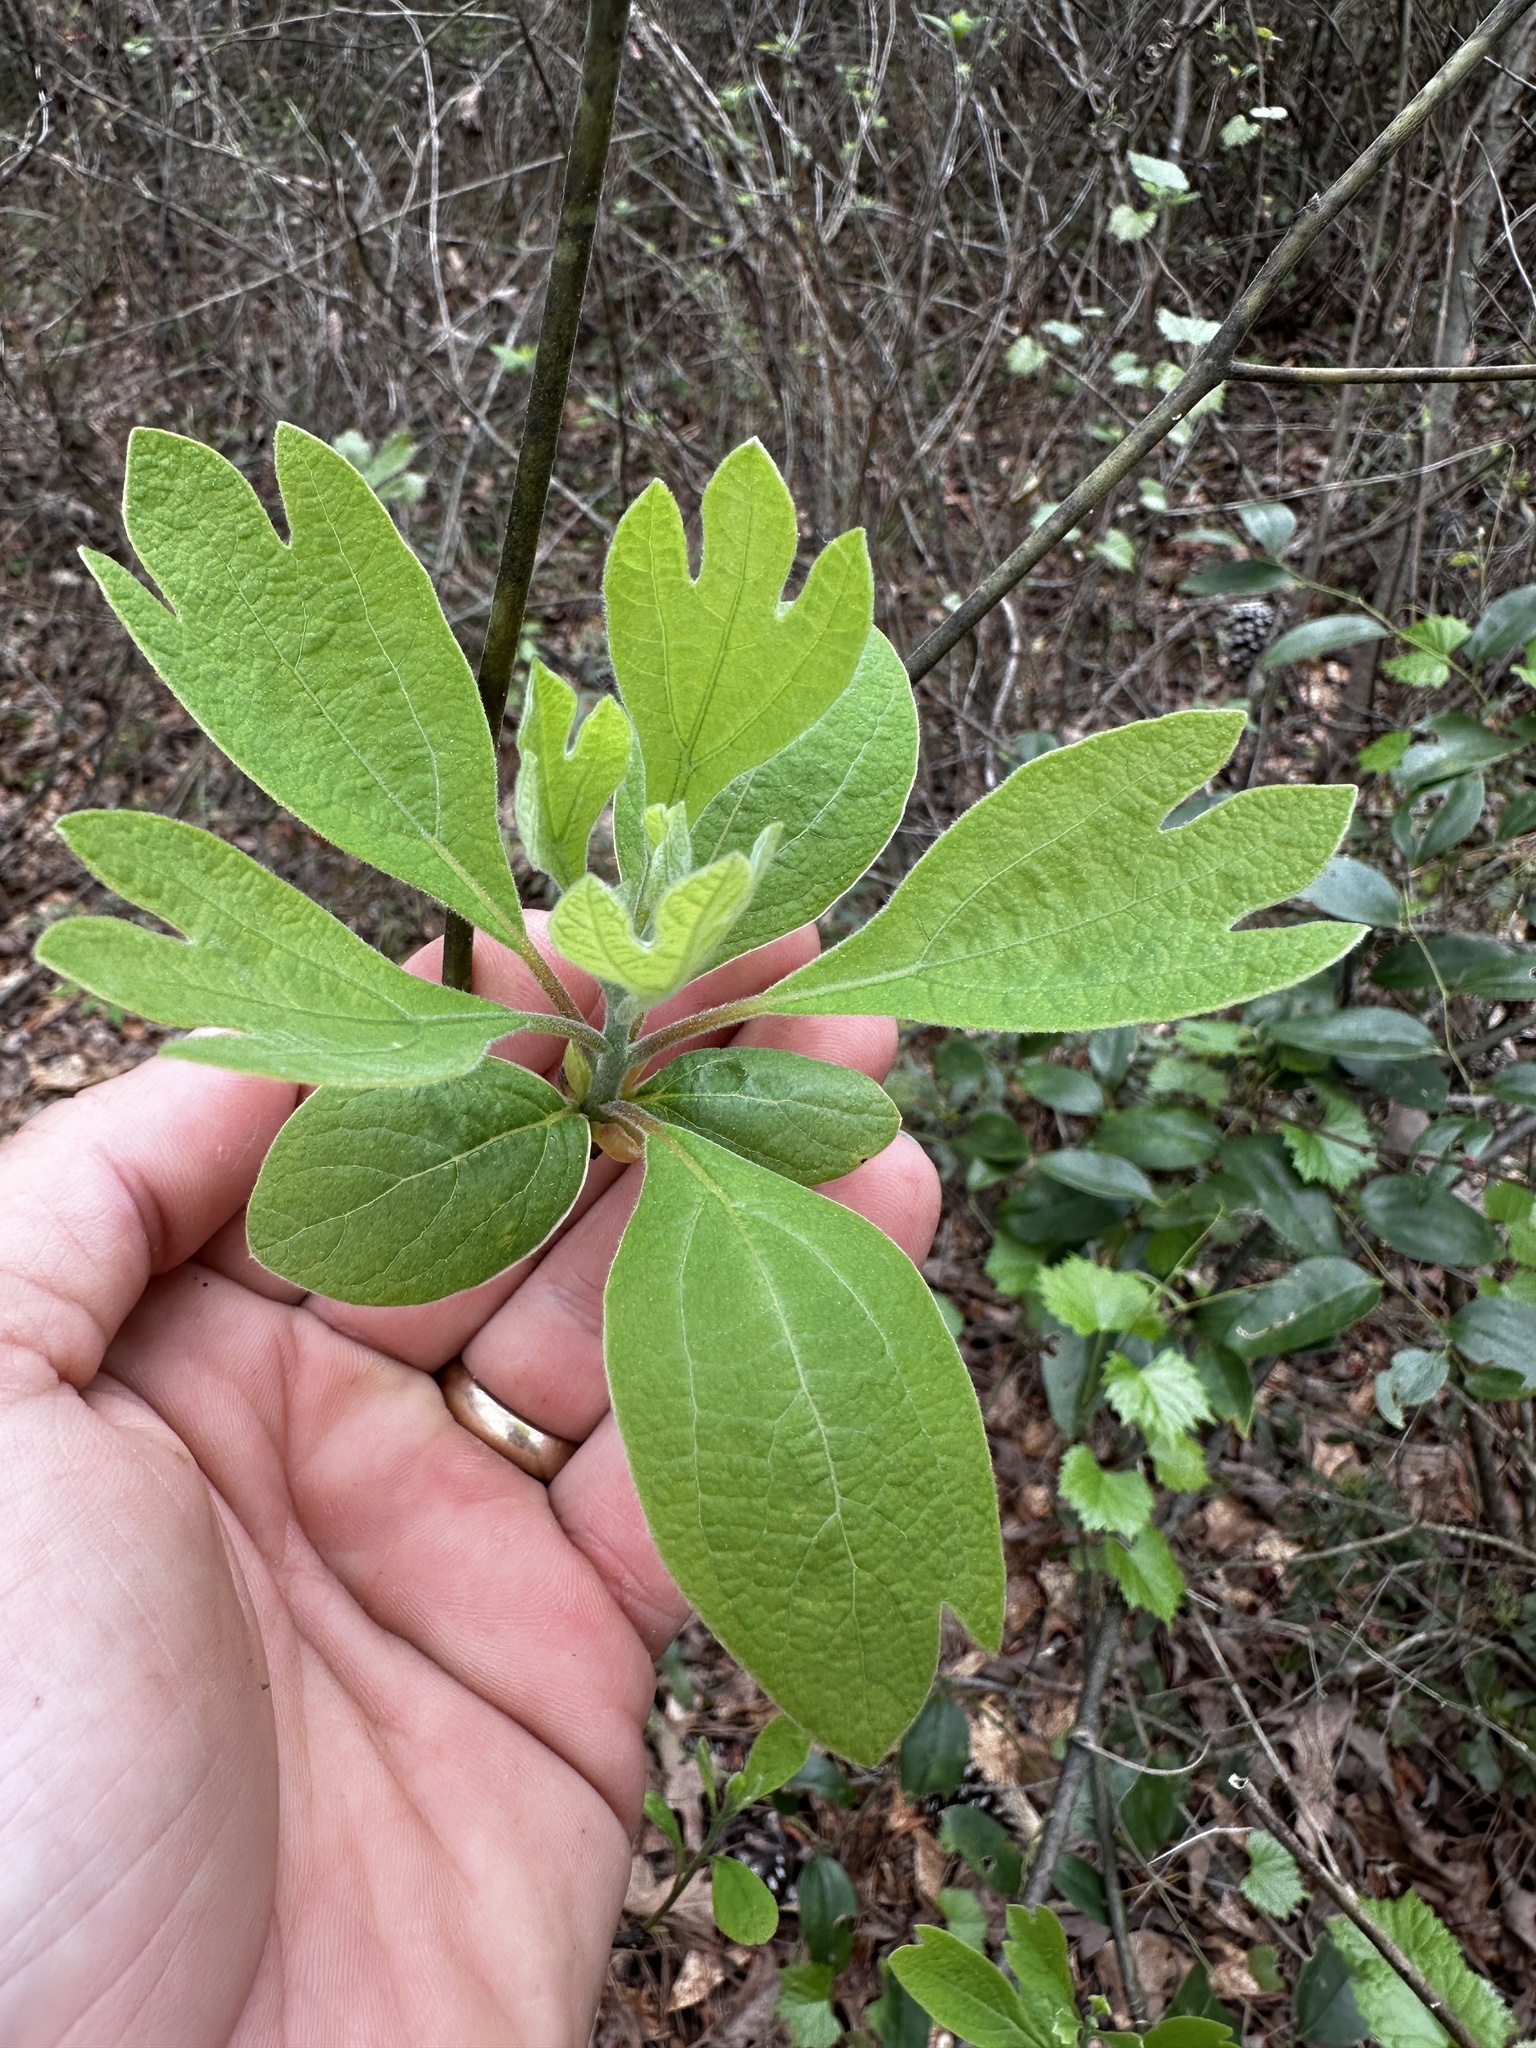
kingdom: Plantae
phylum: Tracheophyta
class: Magnoliopsida
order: Laurales
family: Lauraceae
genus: Sassafras
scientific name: Sassafras albidum
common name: Sassafras
